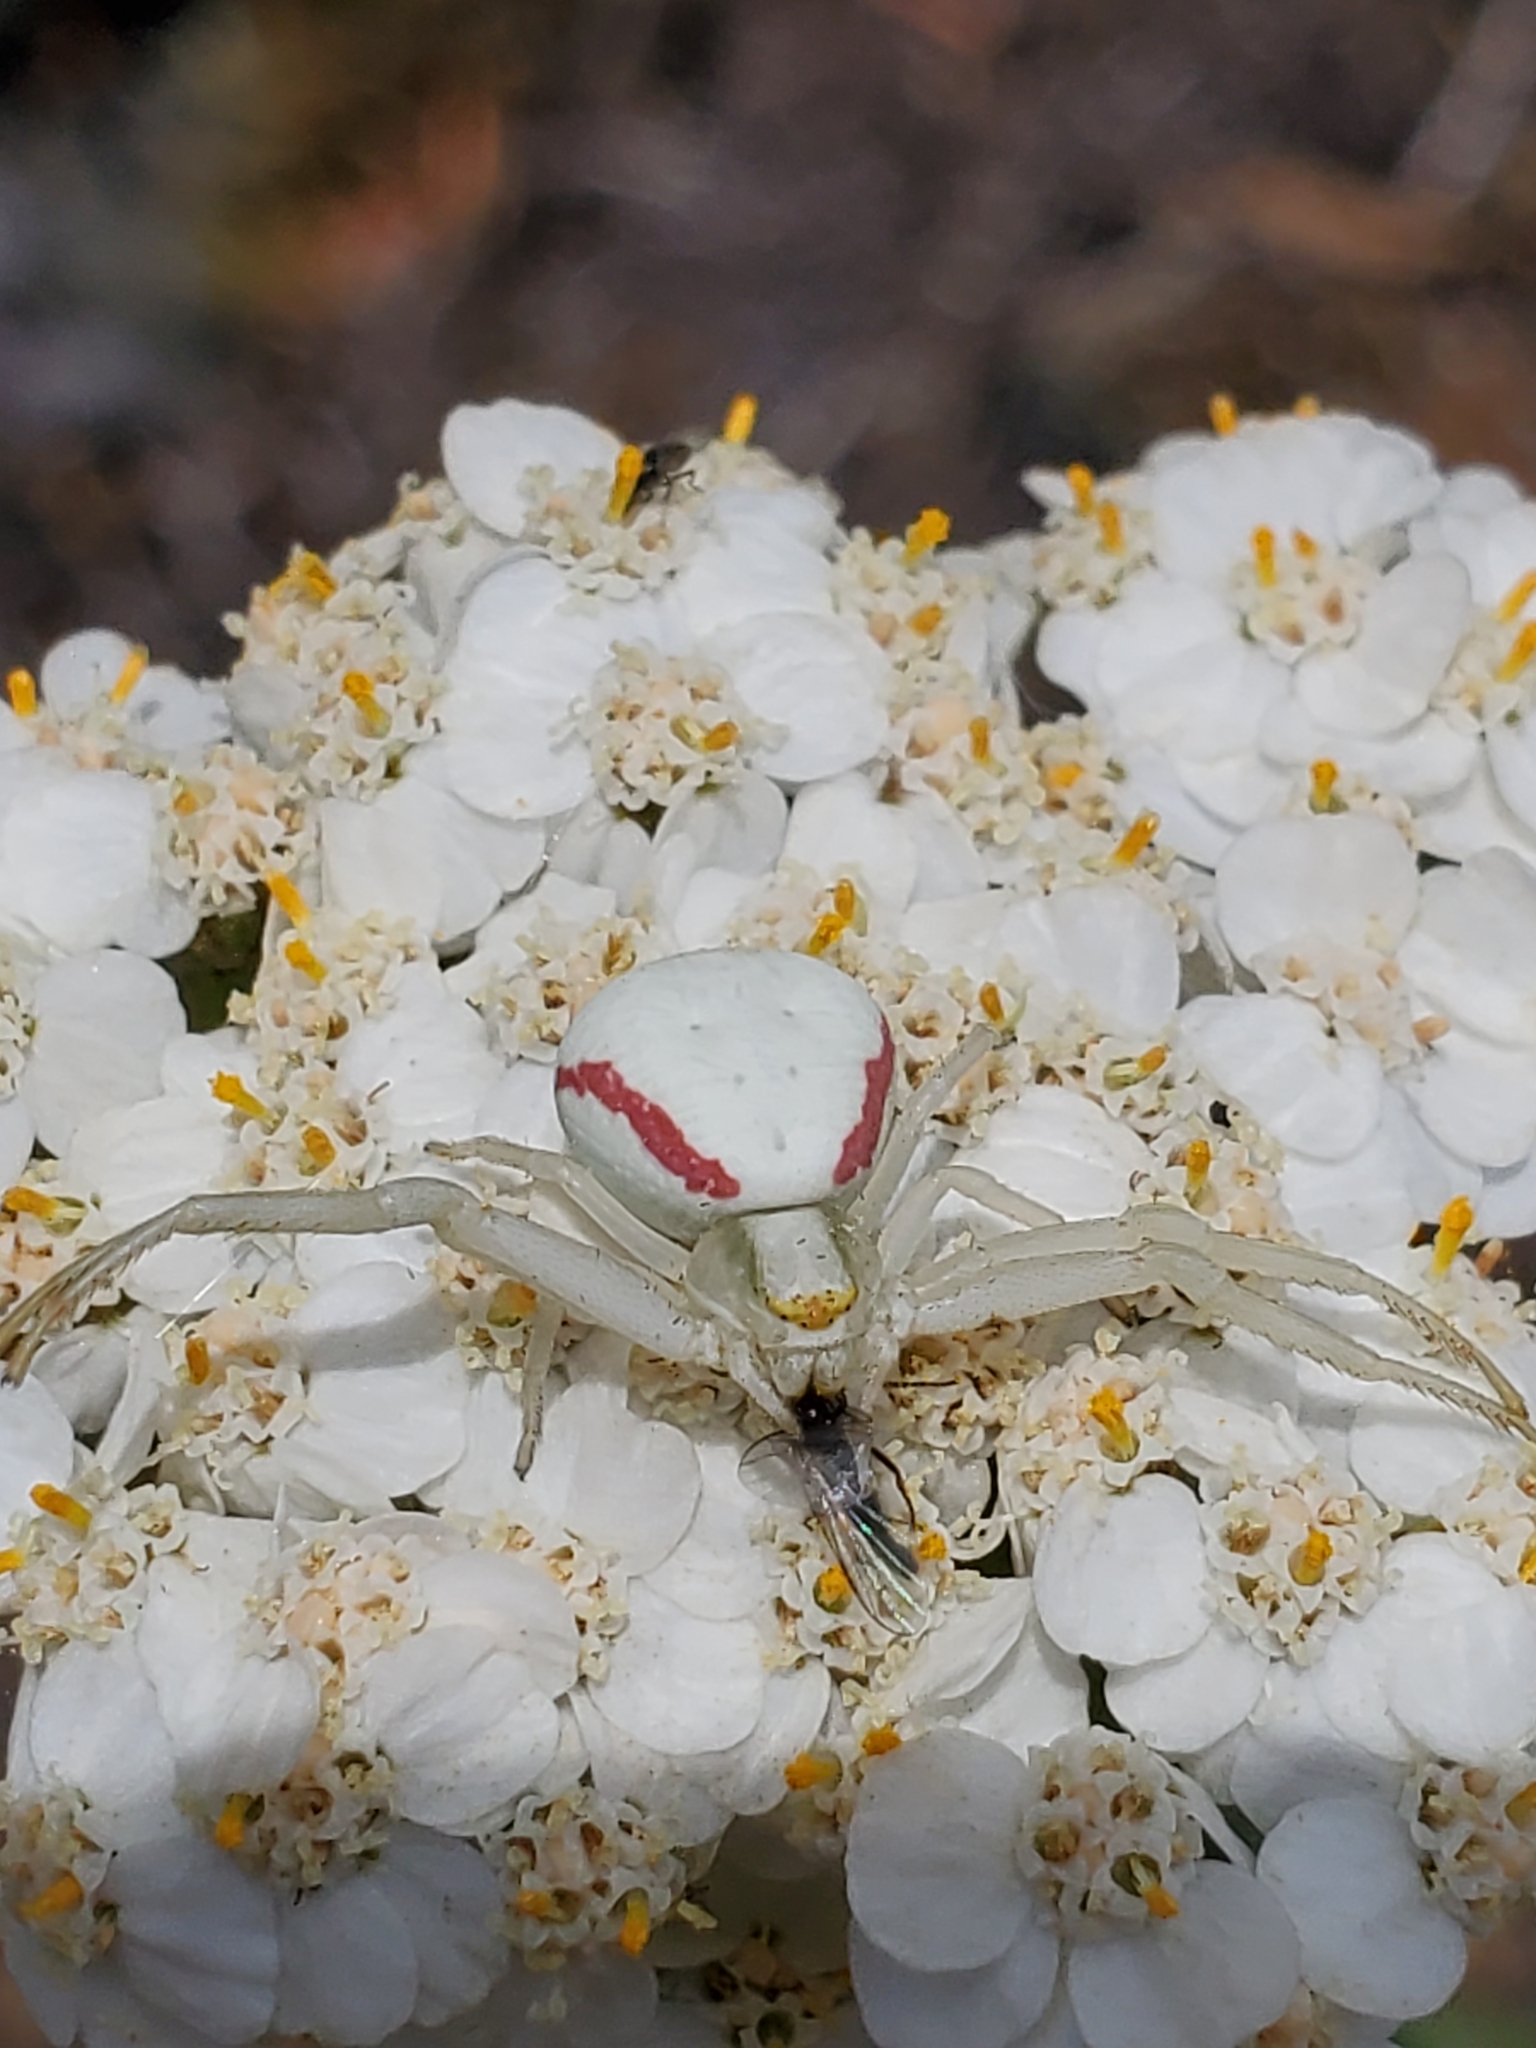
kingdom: Animalia
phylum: Arthropoda
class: Arachnida
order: Araneae
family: Thomisidae
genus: Misumena
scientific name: Misumena vatia
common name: Goldenrod crab spider
